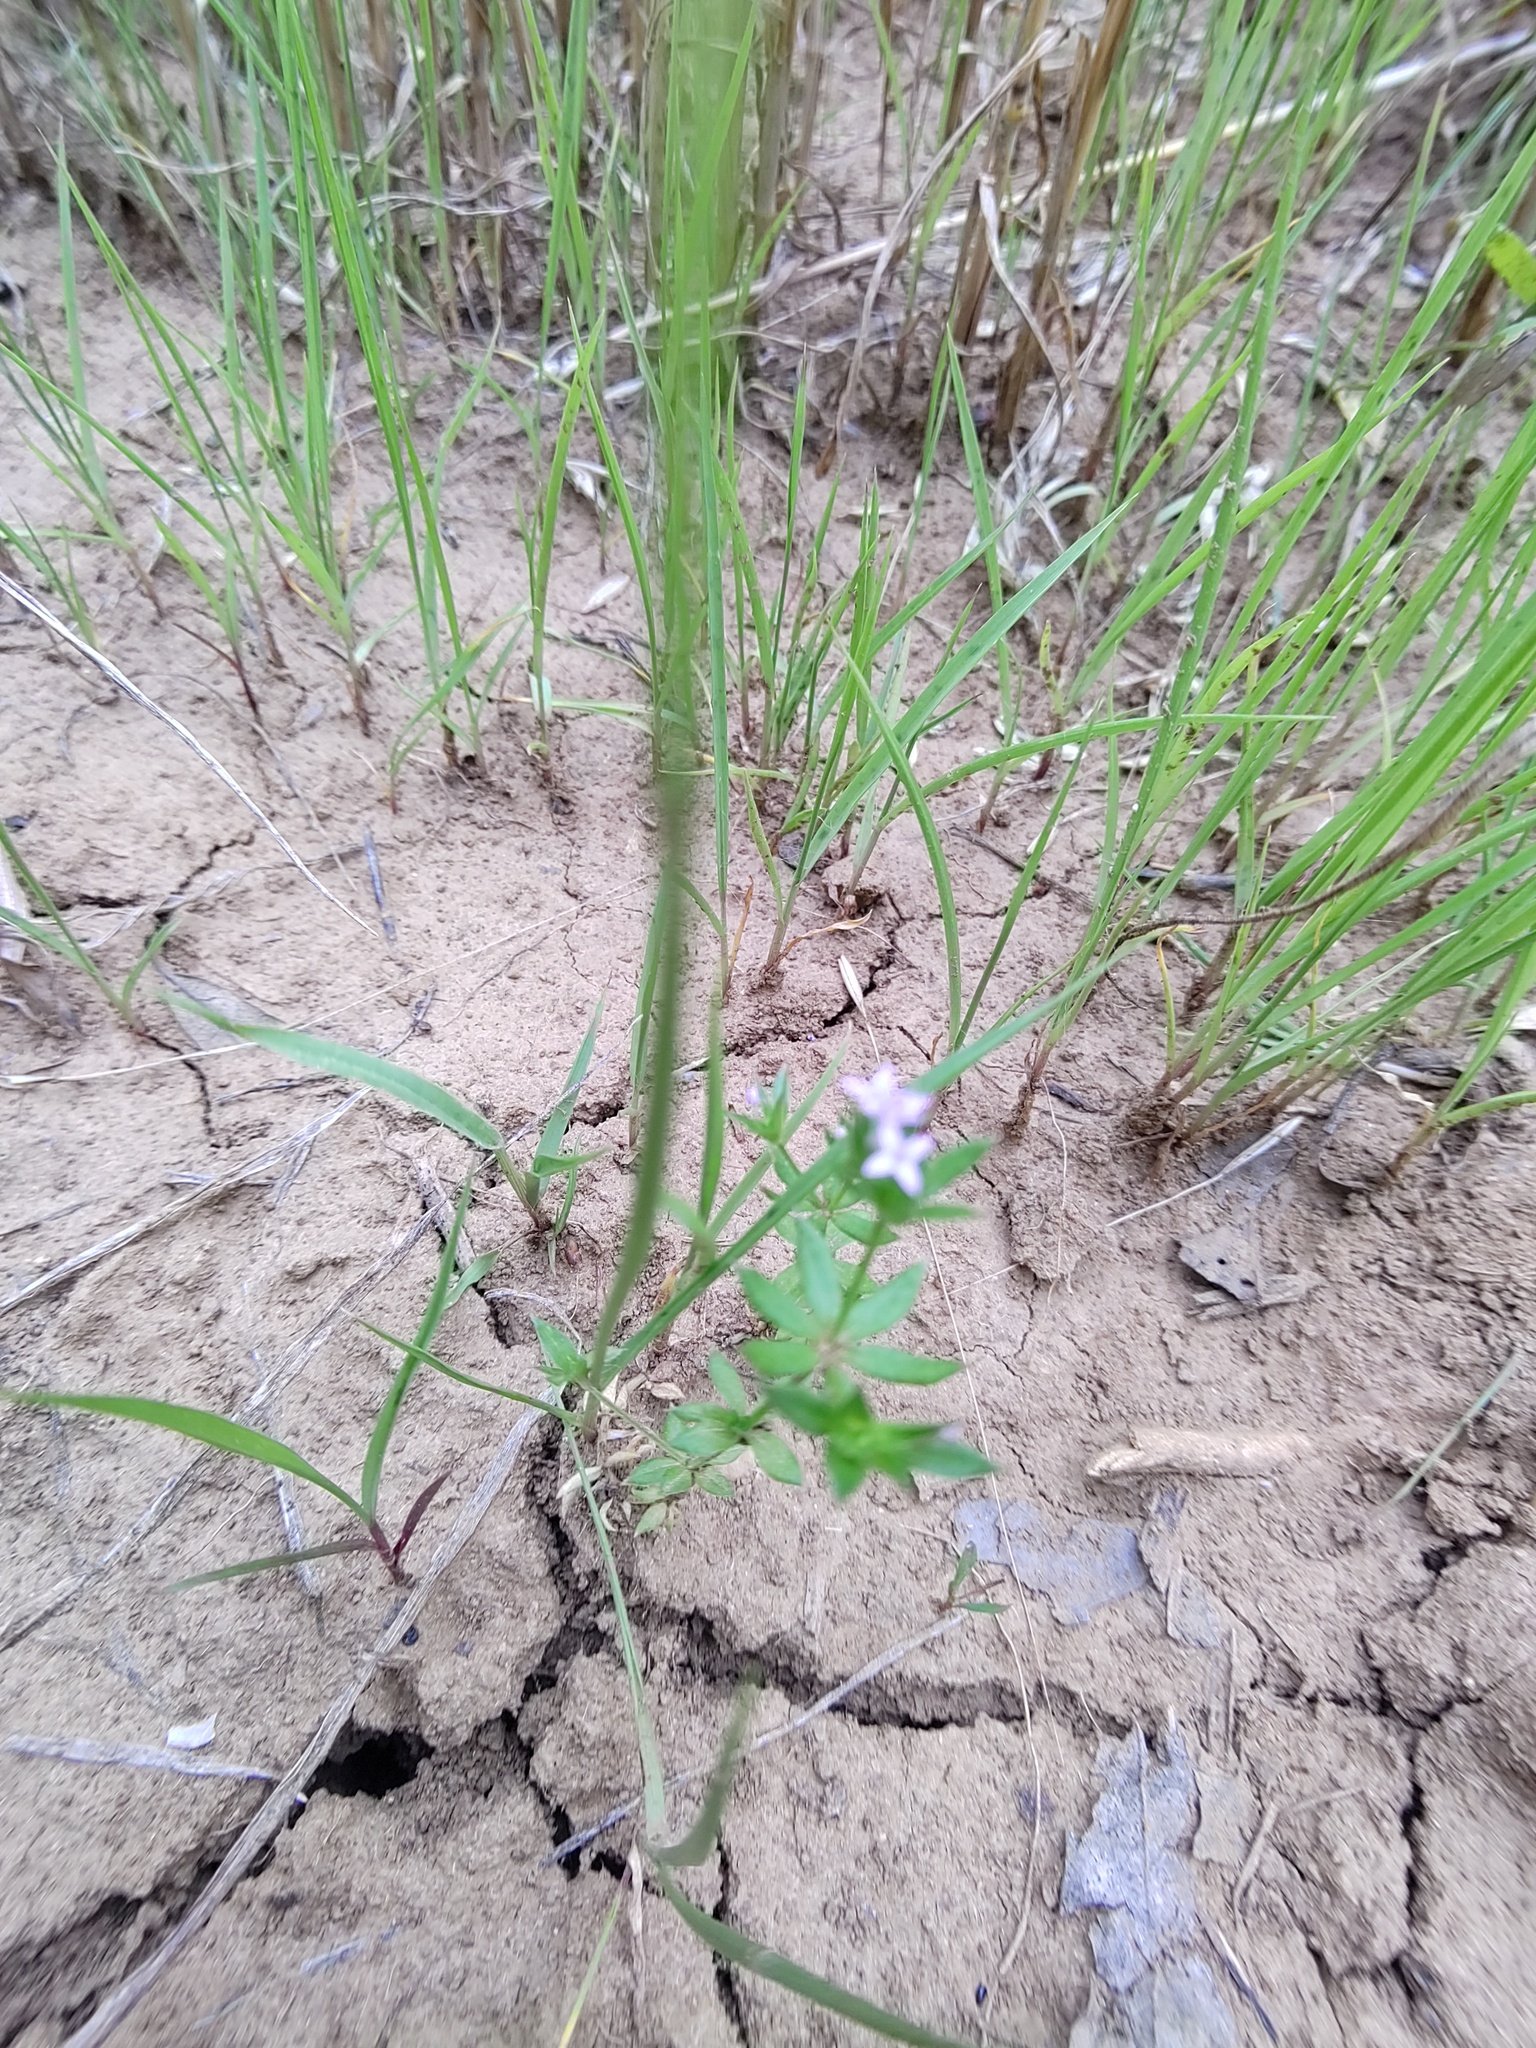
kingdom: Plantae
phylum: Tracheophyta
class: Magnoliopsida
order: Gentianales
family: Rubiaceae
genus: Sherardia
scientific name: Sherardia arvensis
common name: Field madder
